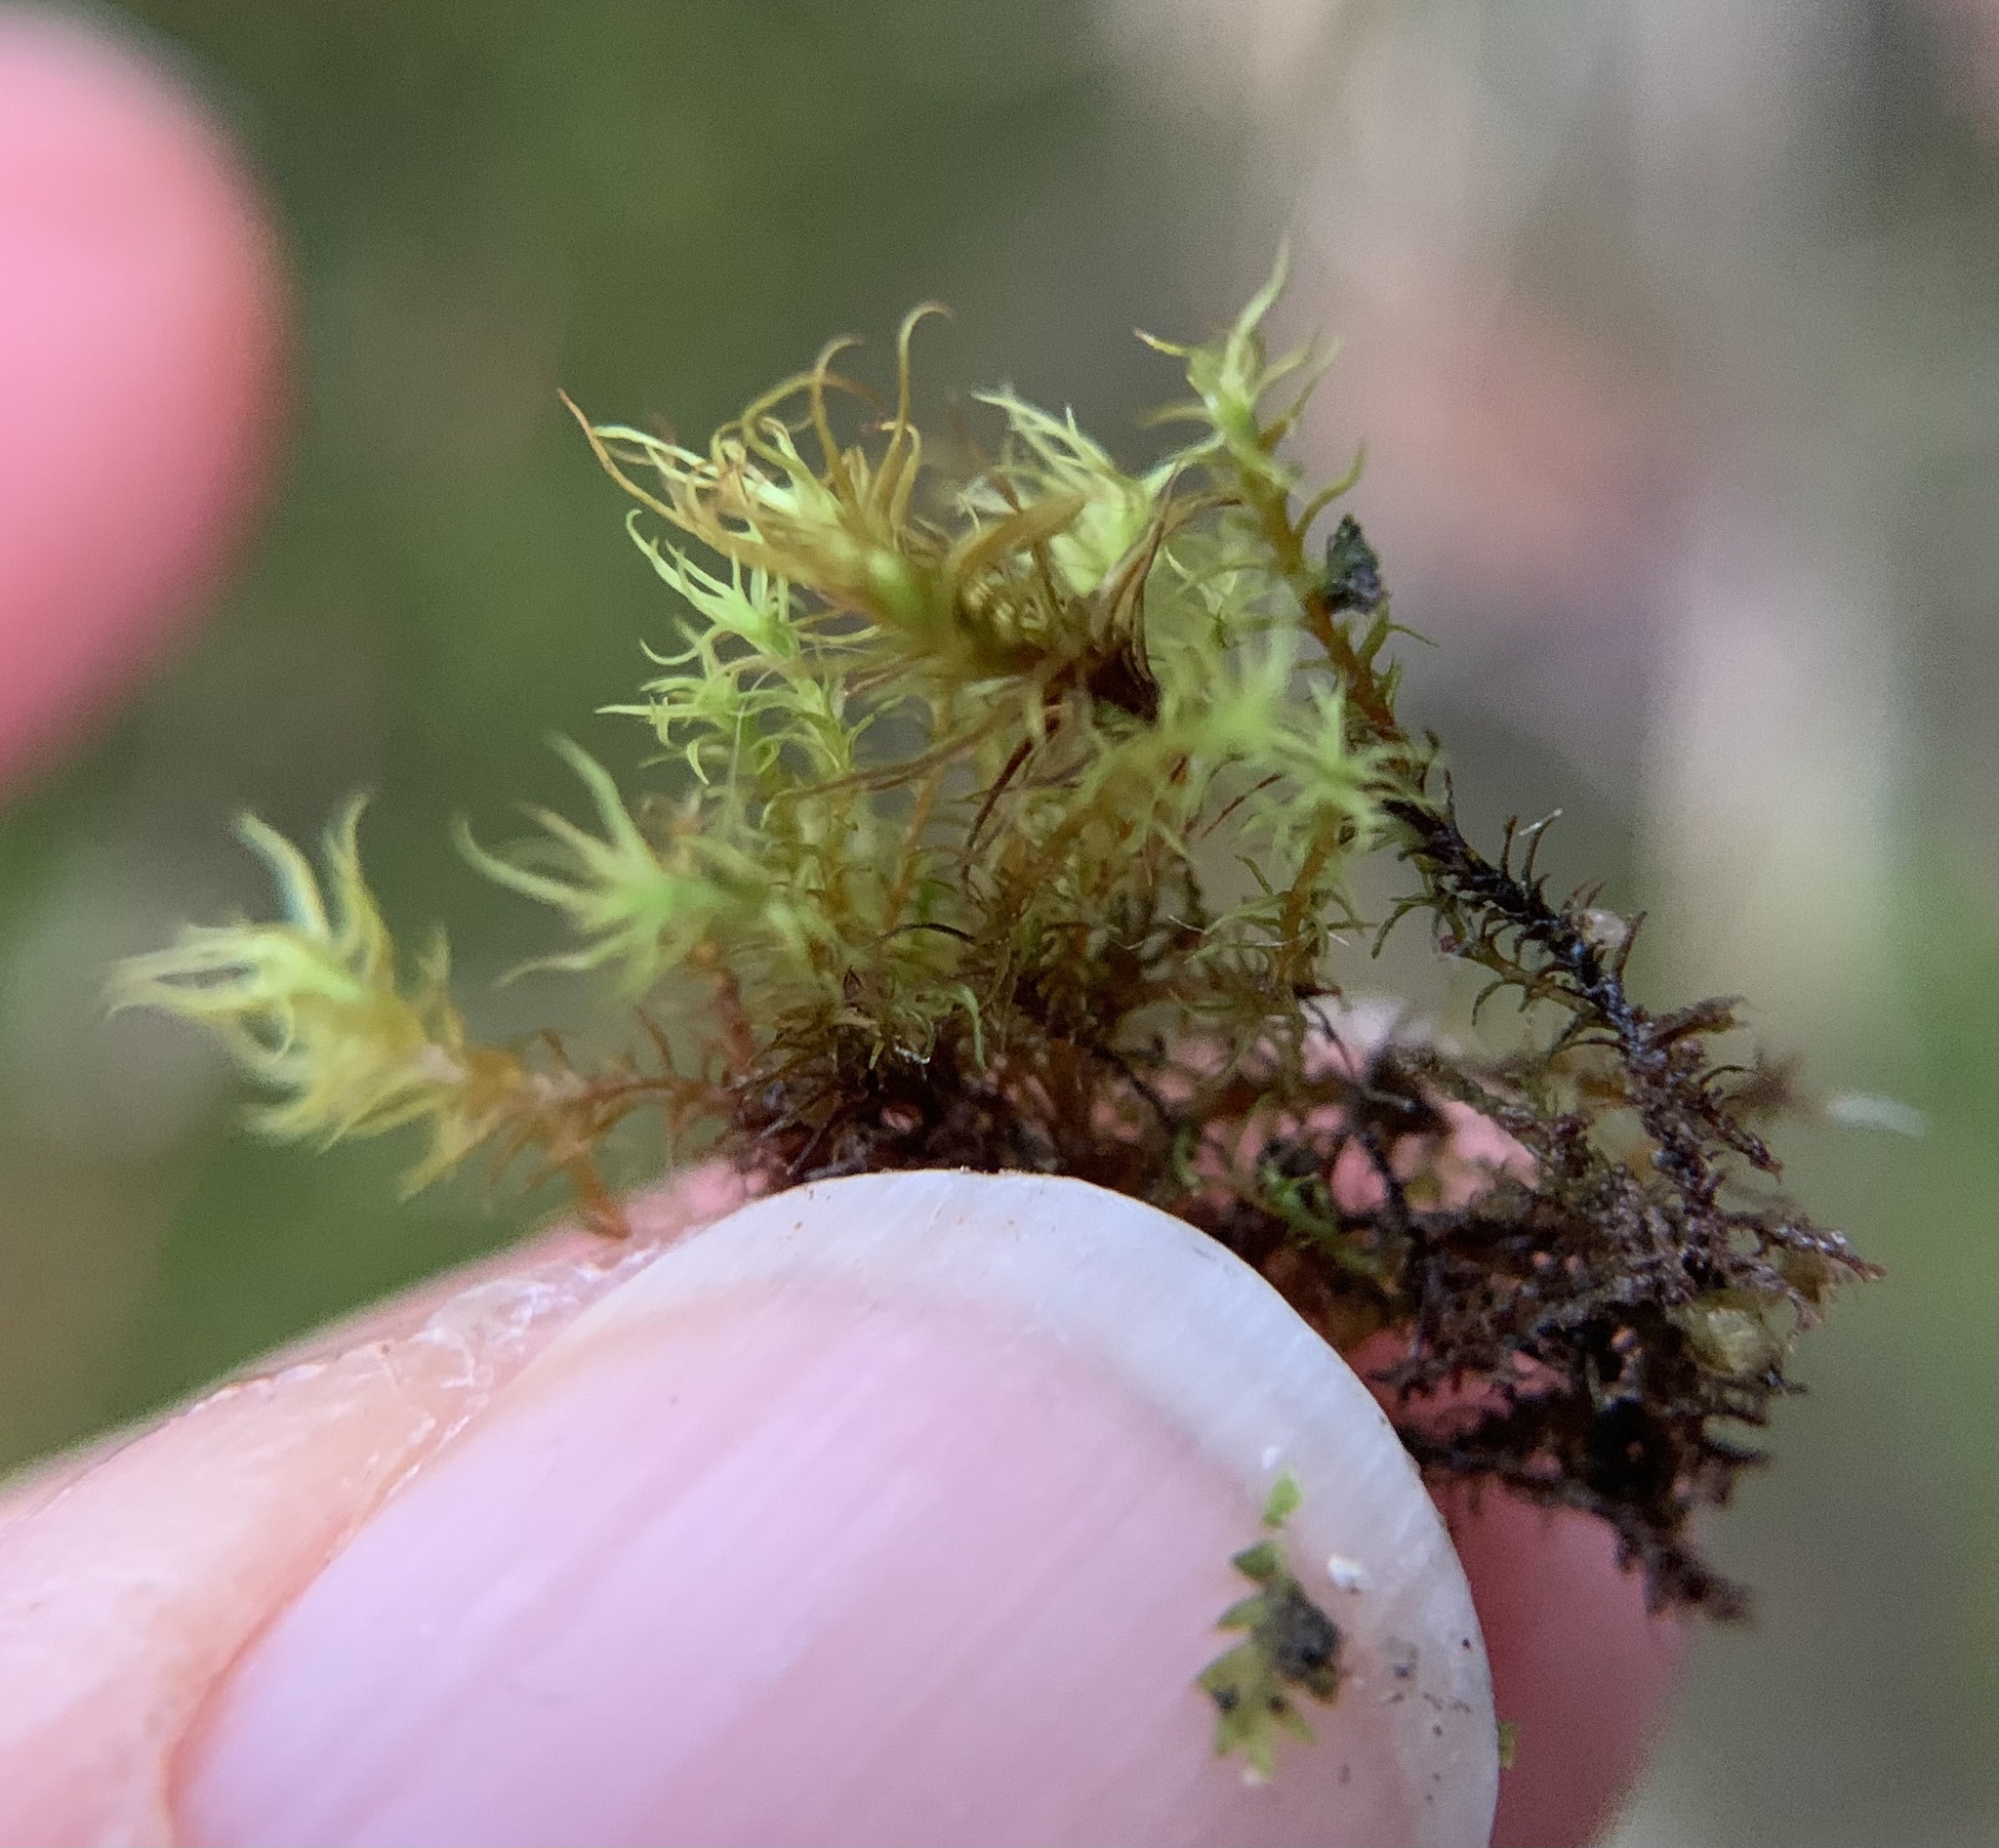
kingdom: Plantae
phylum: Bryophyta
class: Bryopsida
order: Pottiales
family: Pottiaceae
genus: Vinealobryum
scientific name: Vinealobryum insulanum
